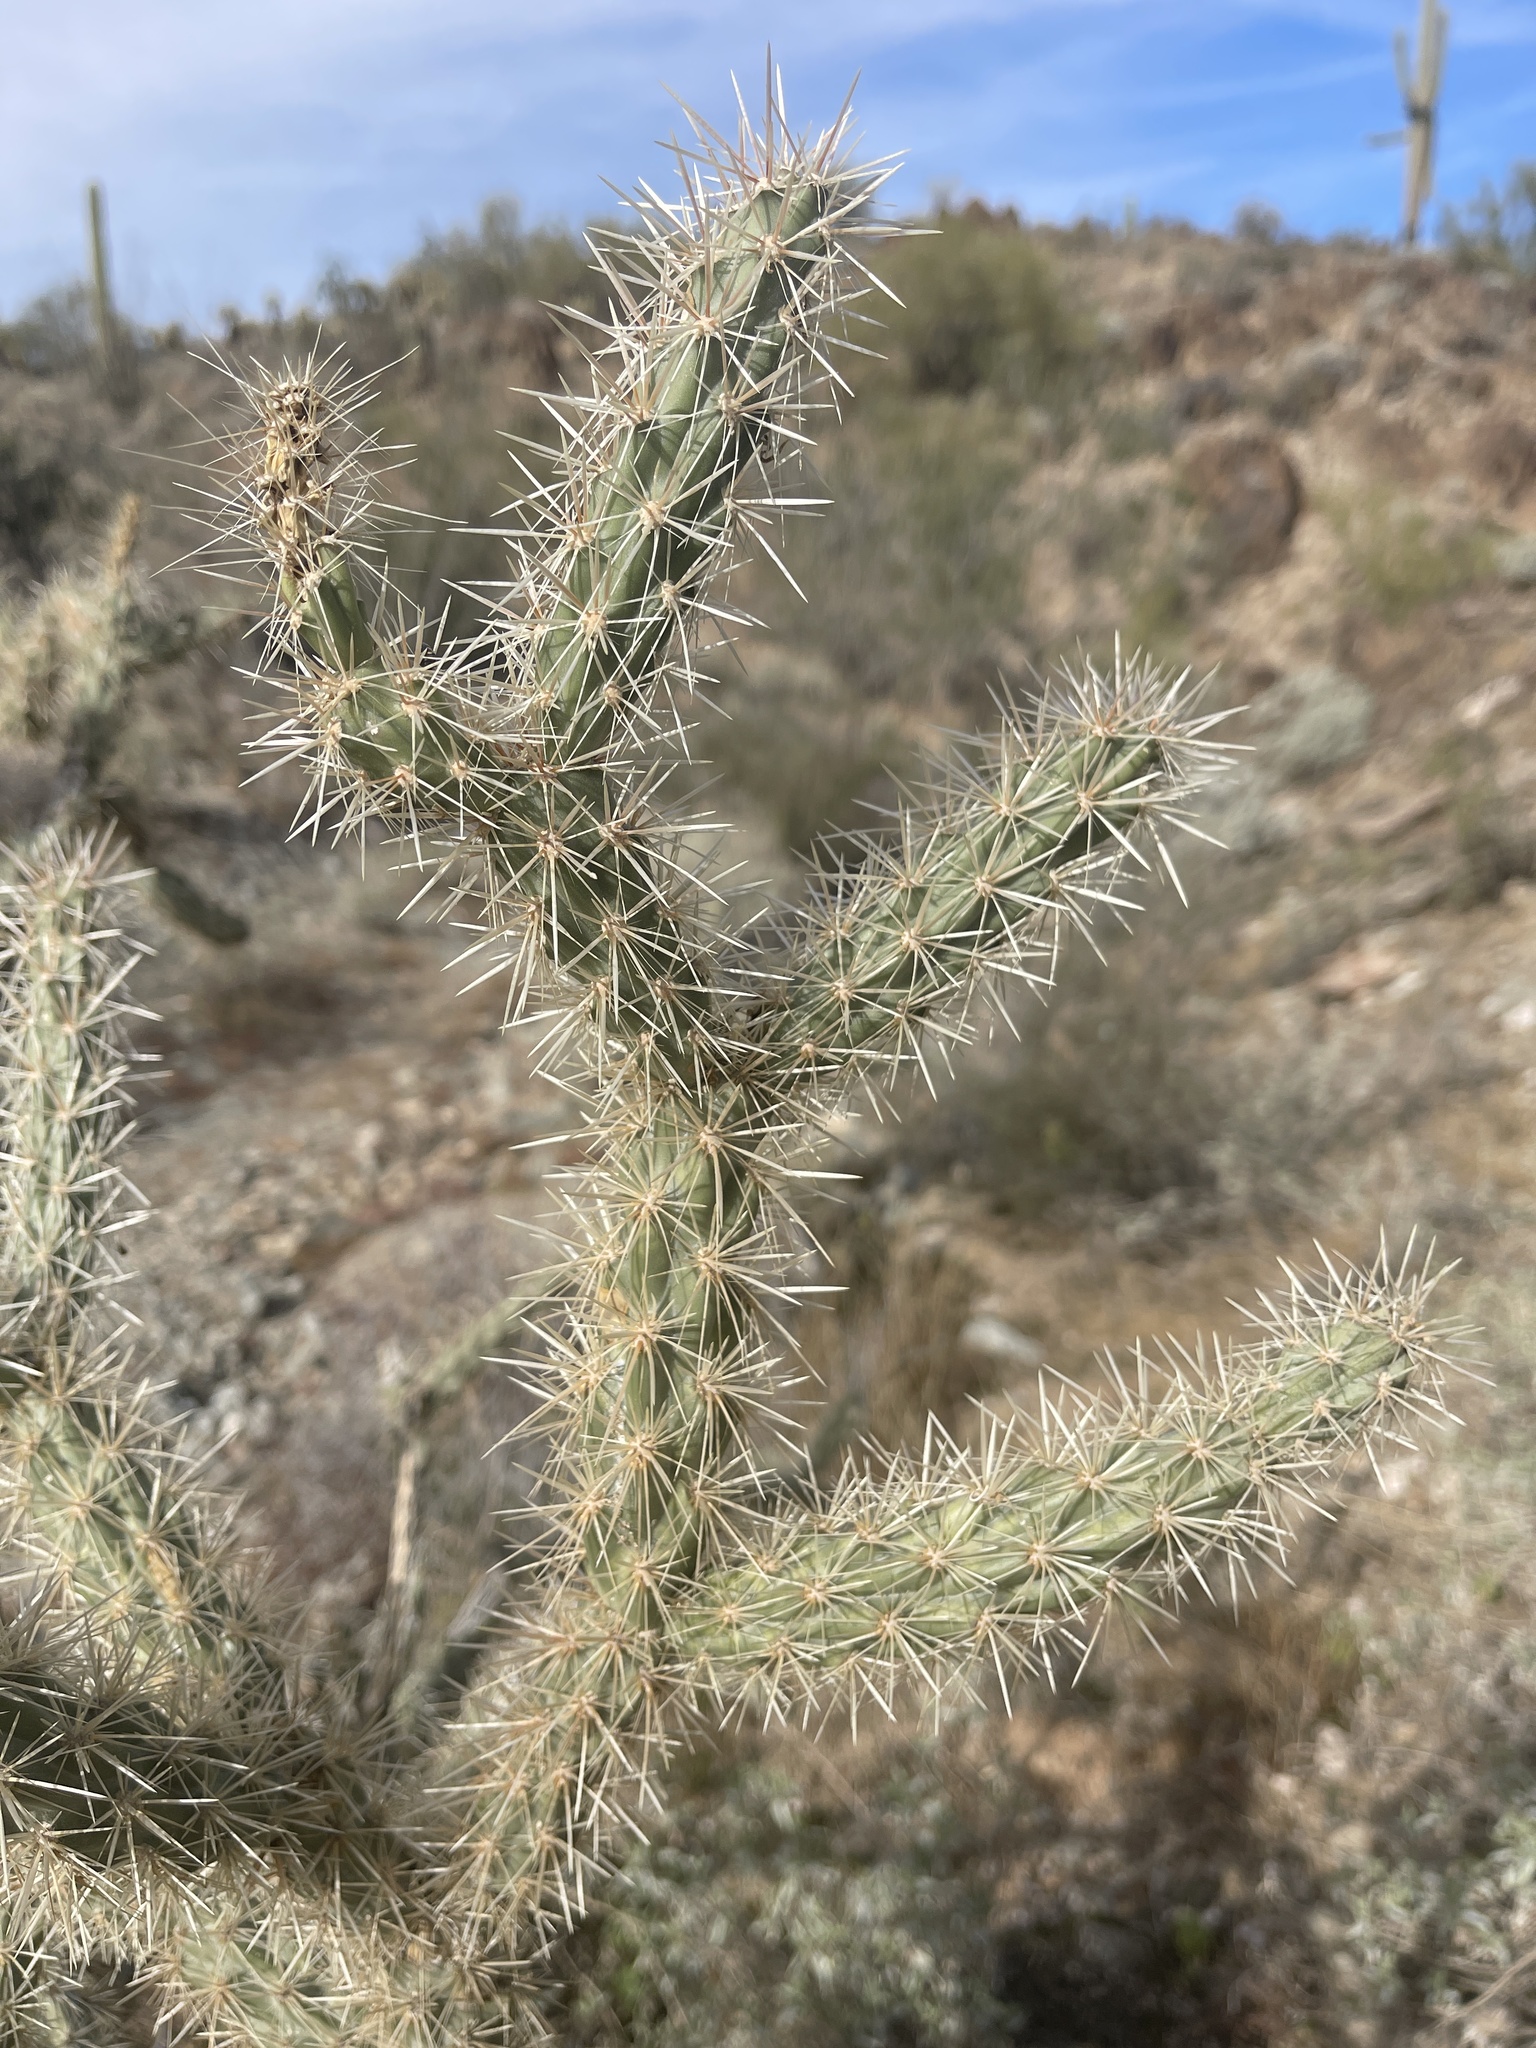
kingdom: Plantae
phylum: Tracheophyta
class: Magnoliopsida
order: Caryophyllales
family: Cactaceae
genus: Cylindropuntia
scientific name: Cylindropuntia acanthocarpa
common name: Buckhorn cholla
